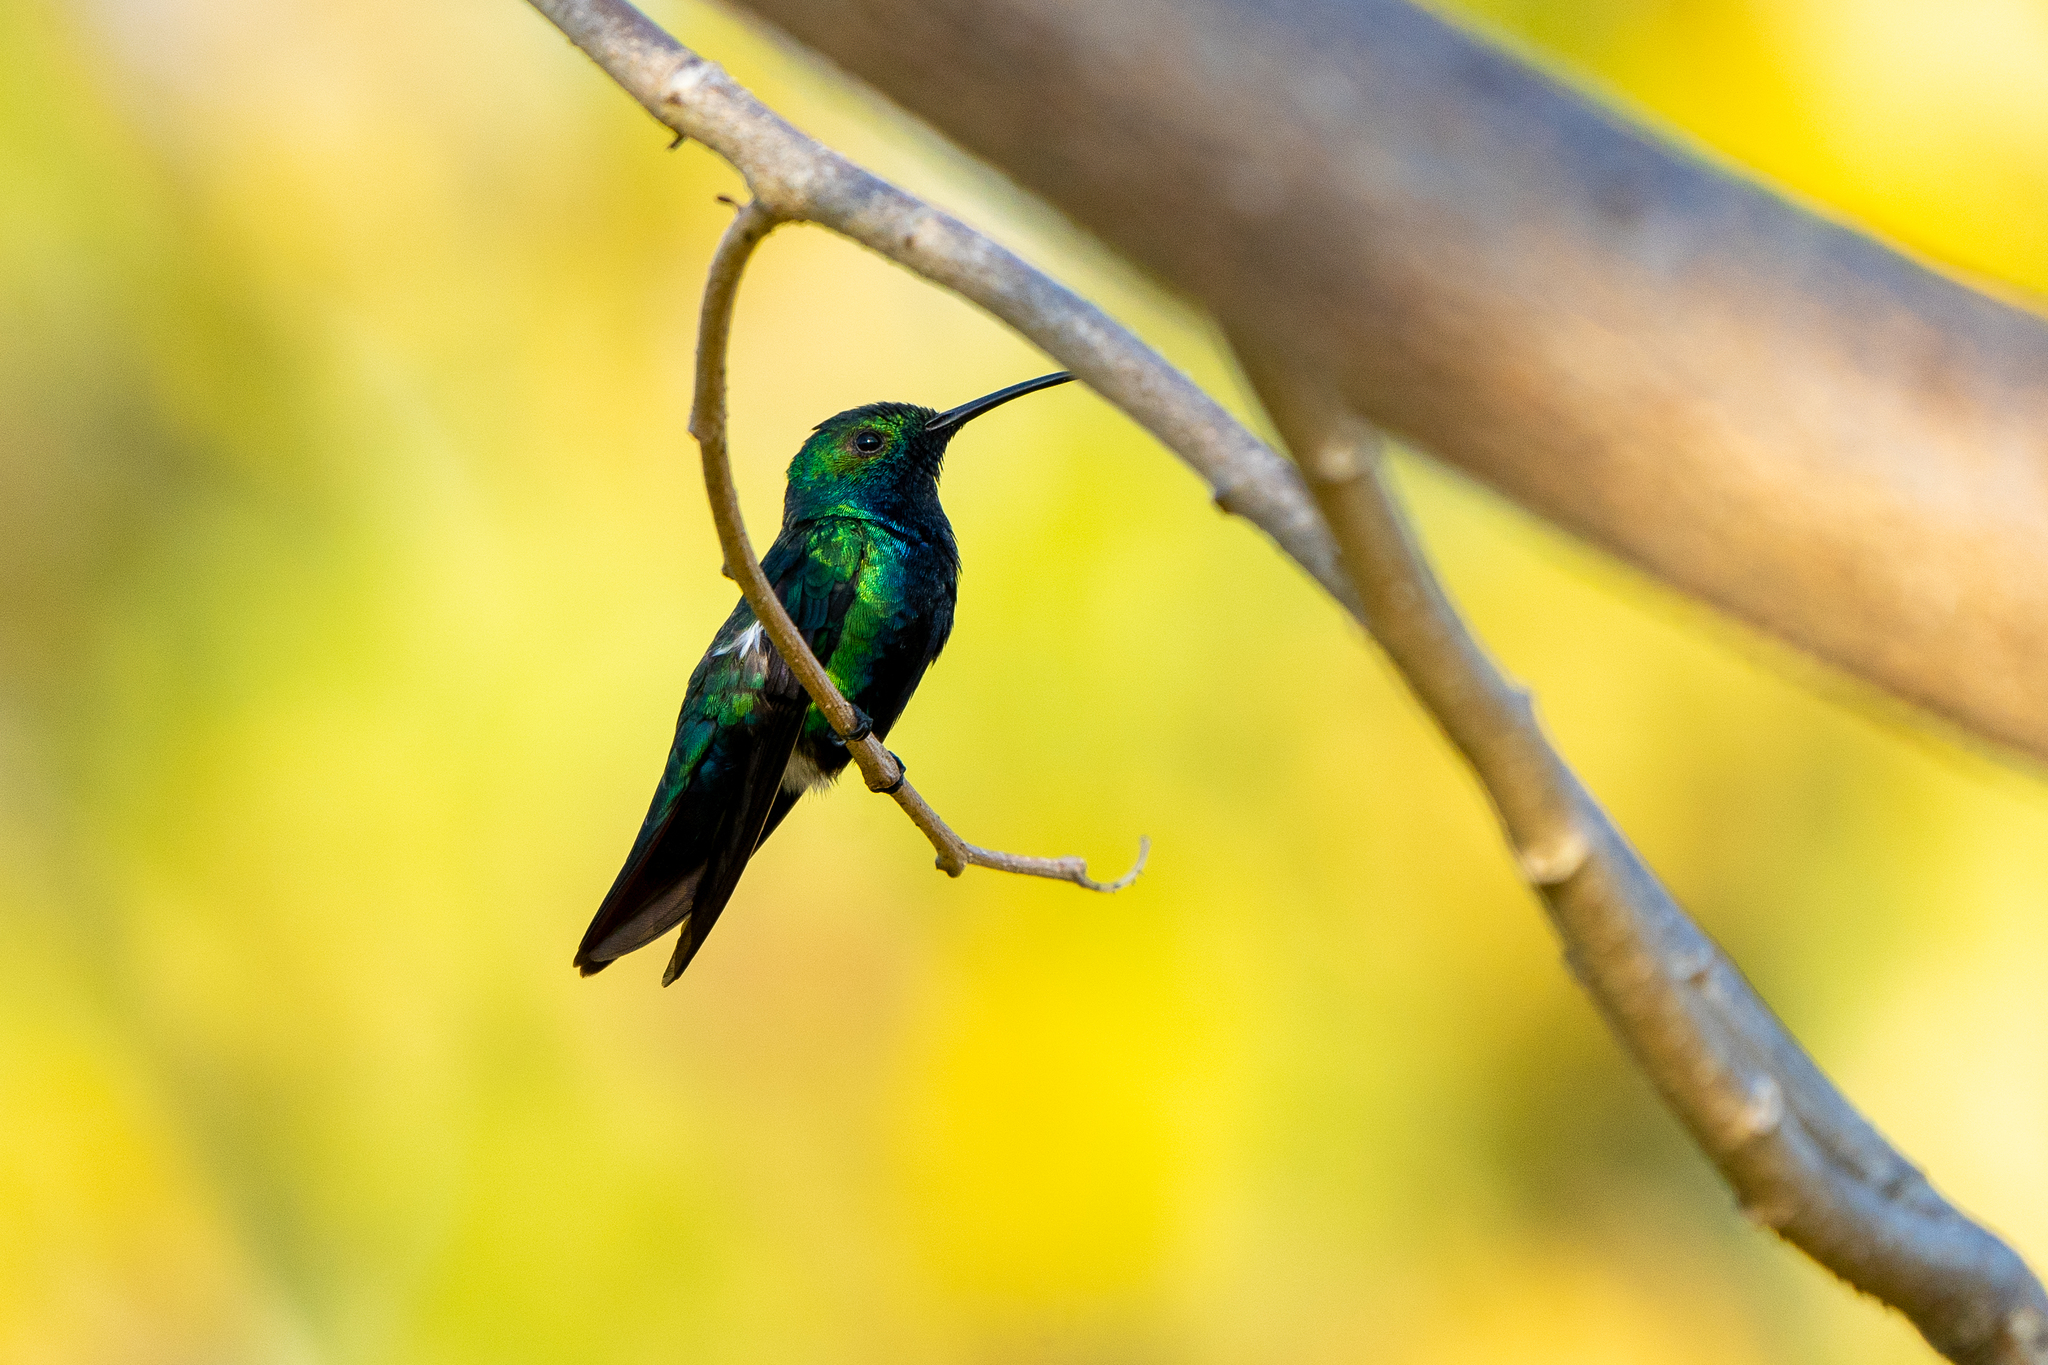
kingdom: Animalia
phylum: Chordata
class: Aves
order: Apodiformes
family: Trochilidae
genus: Anthracothorax
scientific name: Anthracothorax nigricollis
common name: Black-throated mango
